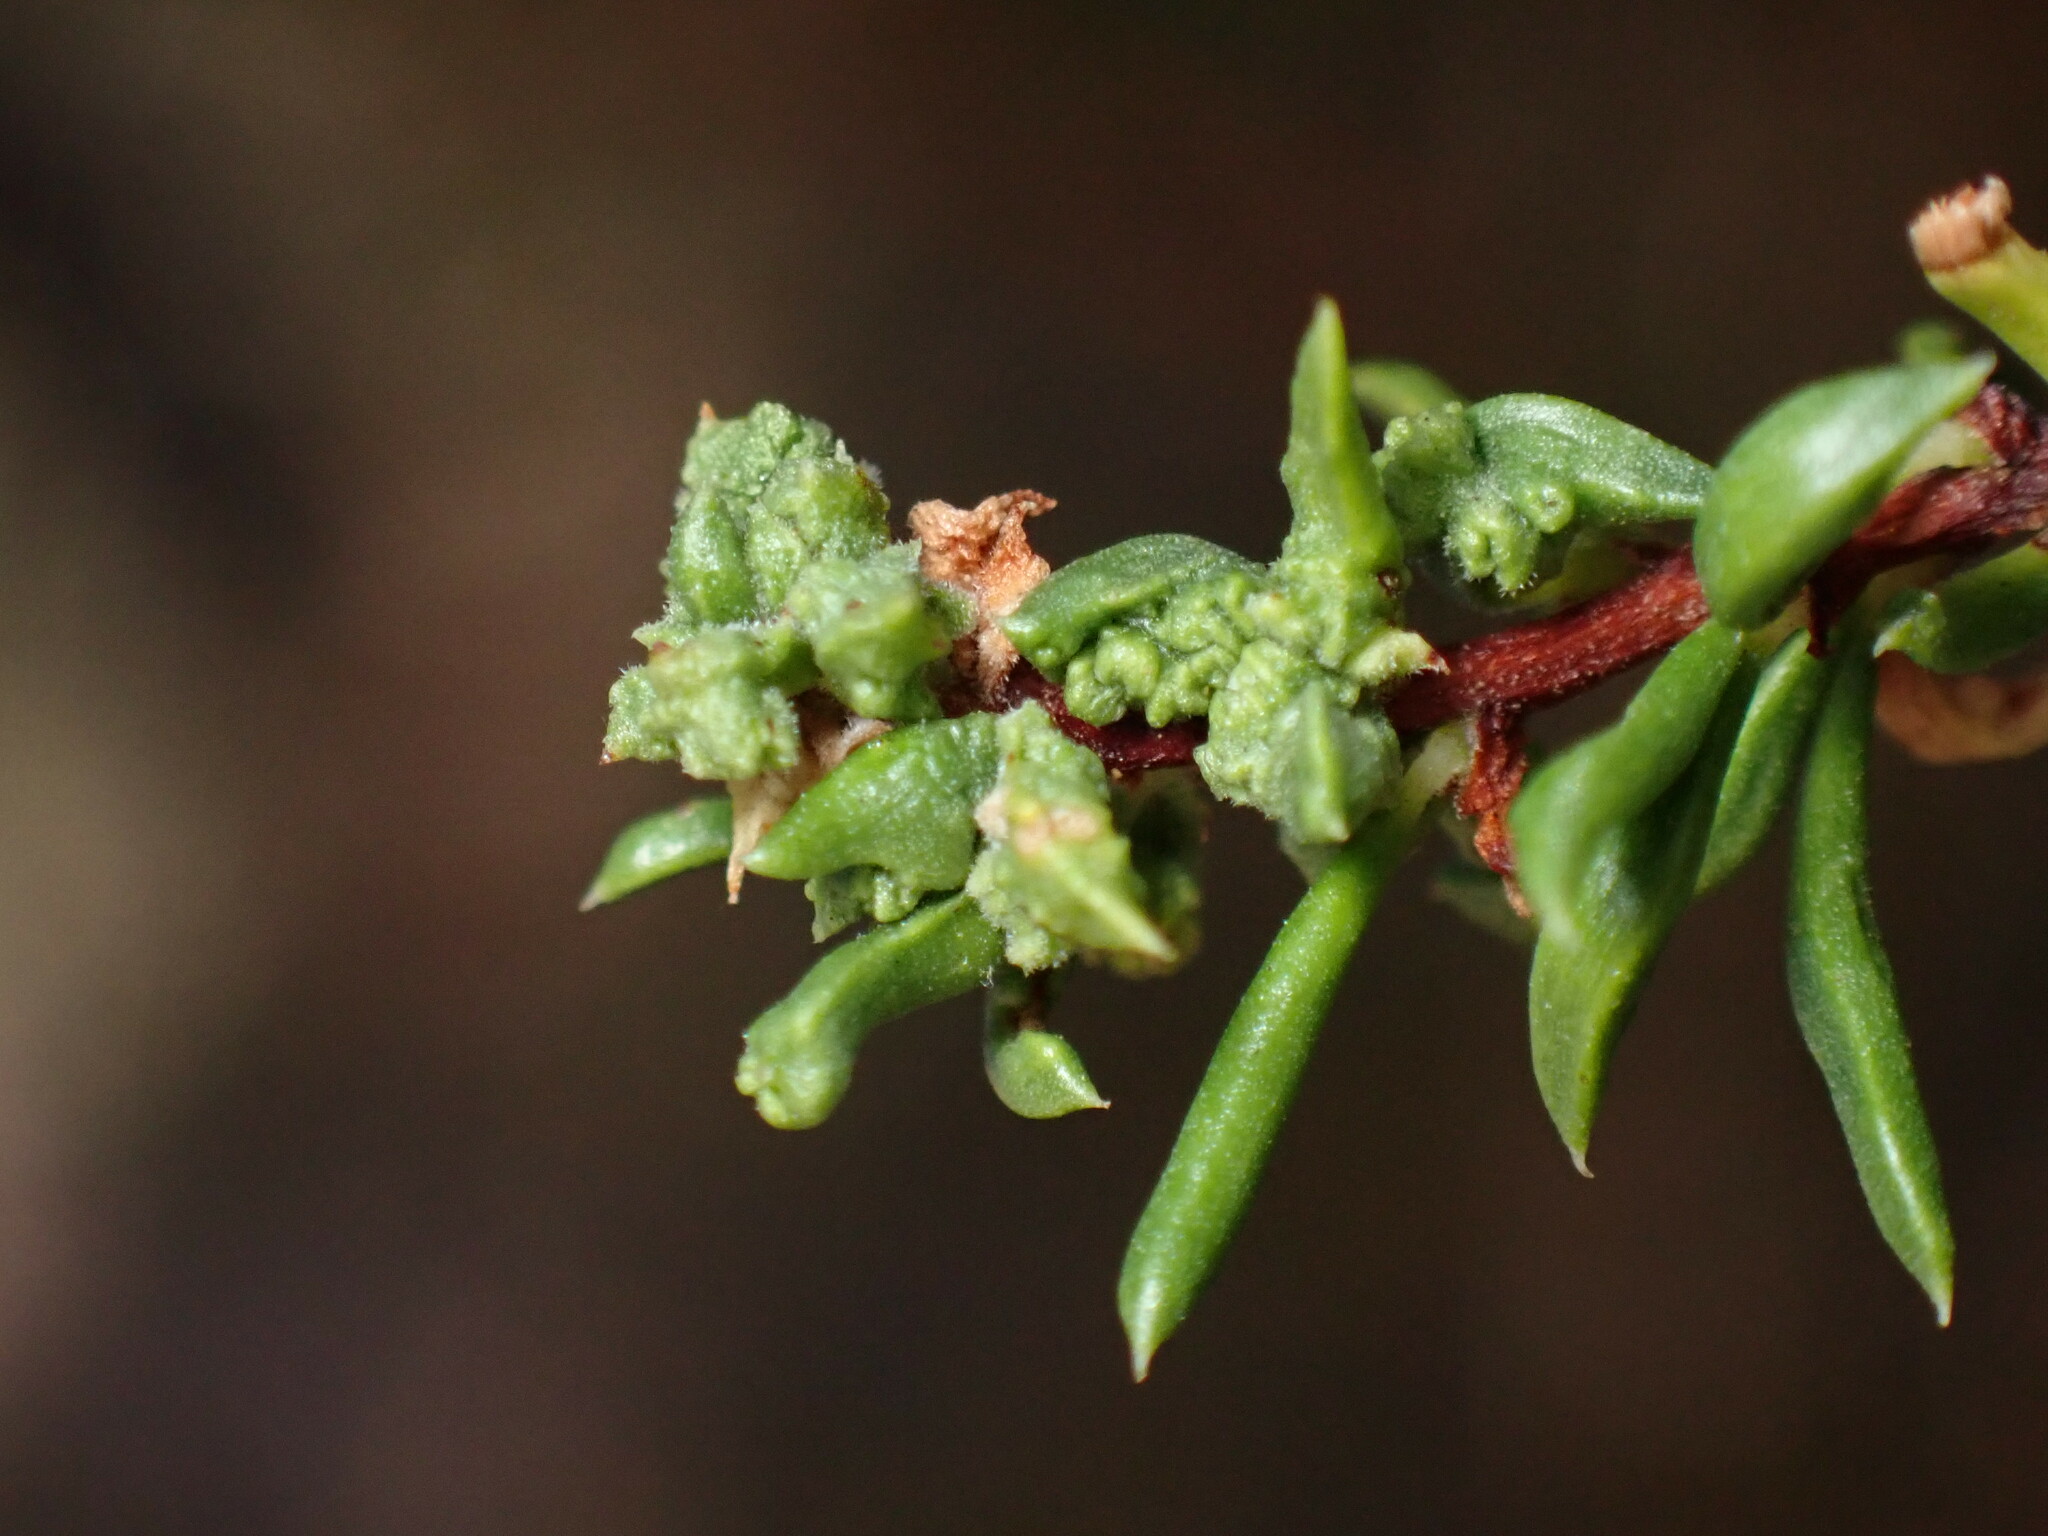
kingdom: Animalia
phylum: Arthropoda
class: Arachnida
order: Trombidiformes
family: Eriophyidae
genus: Eriophyes
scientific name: Eriophyes
